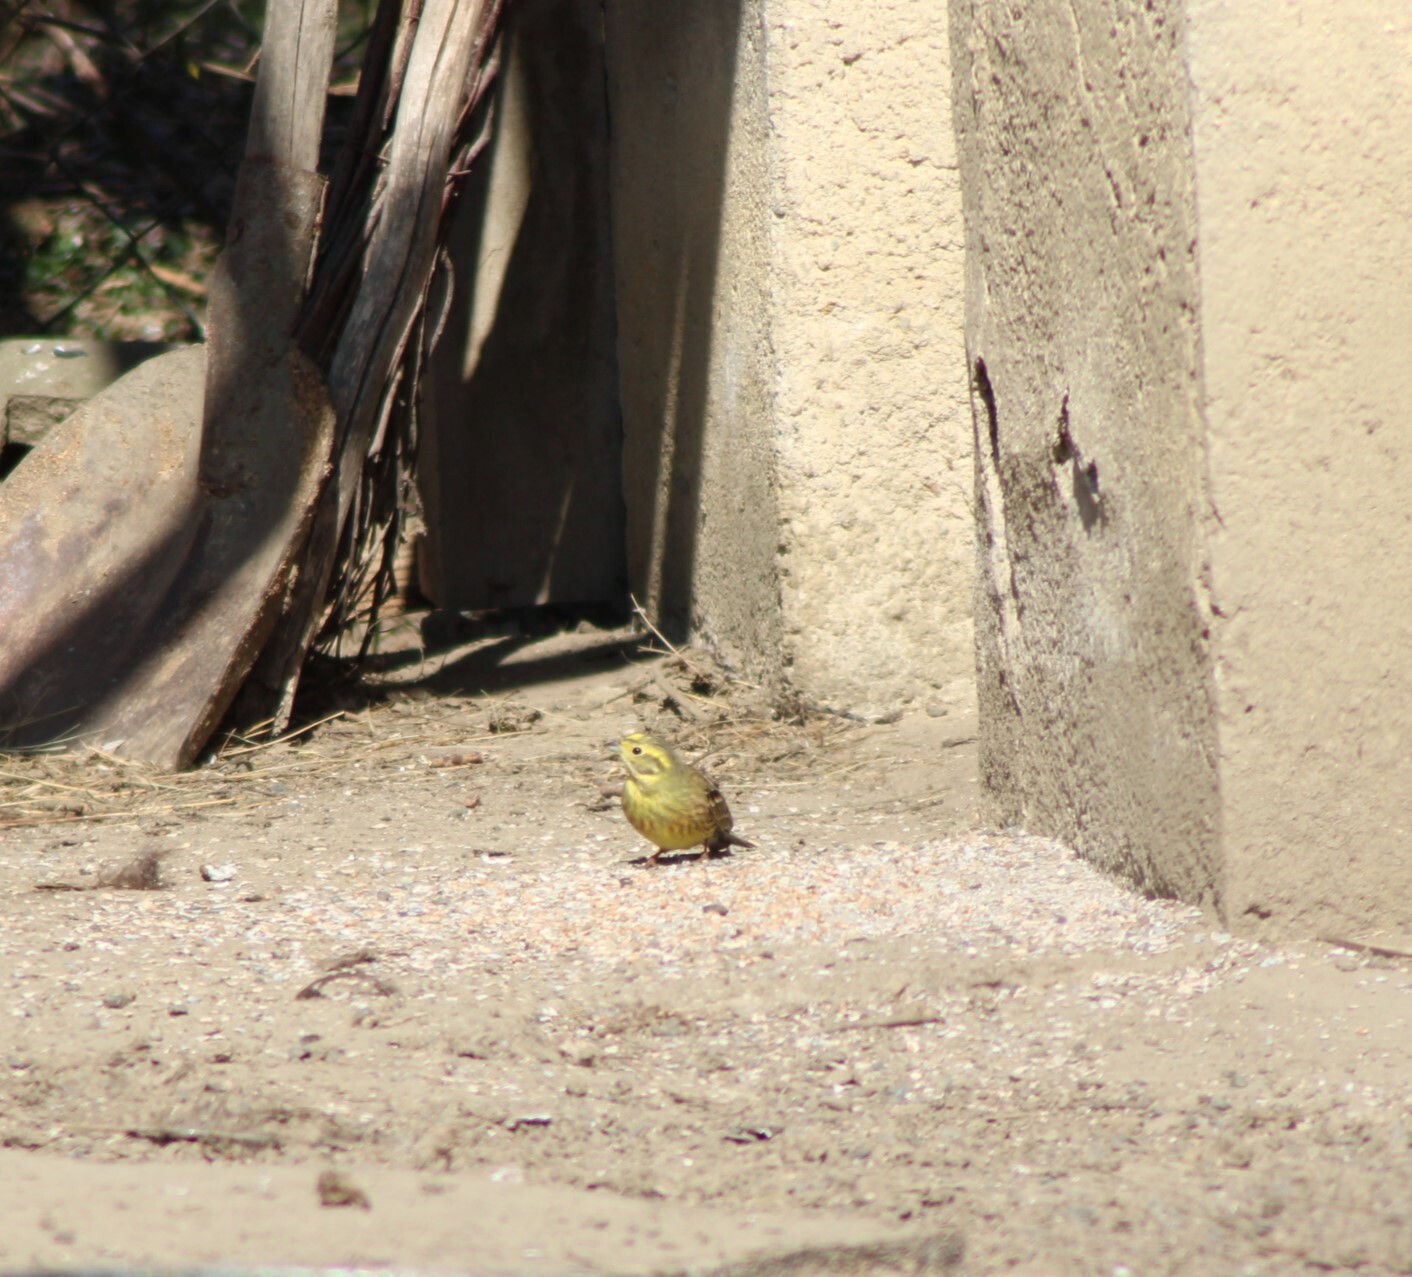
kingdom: Animalia
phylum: Chordata
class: Aves
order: Passeriformes
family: Emberizidae
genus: Emberiza
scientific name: Emberiza citrinella
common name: Yellowhammer
